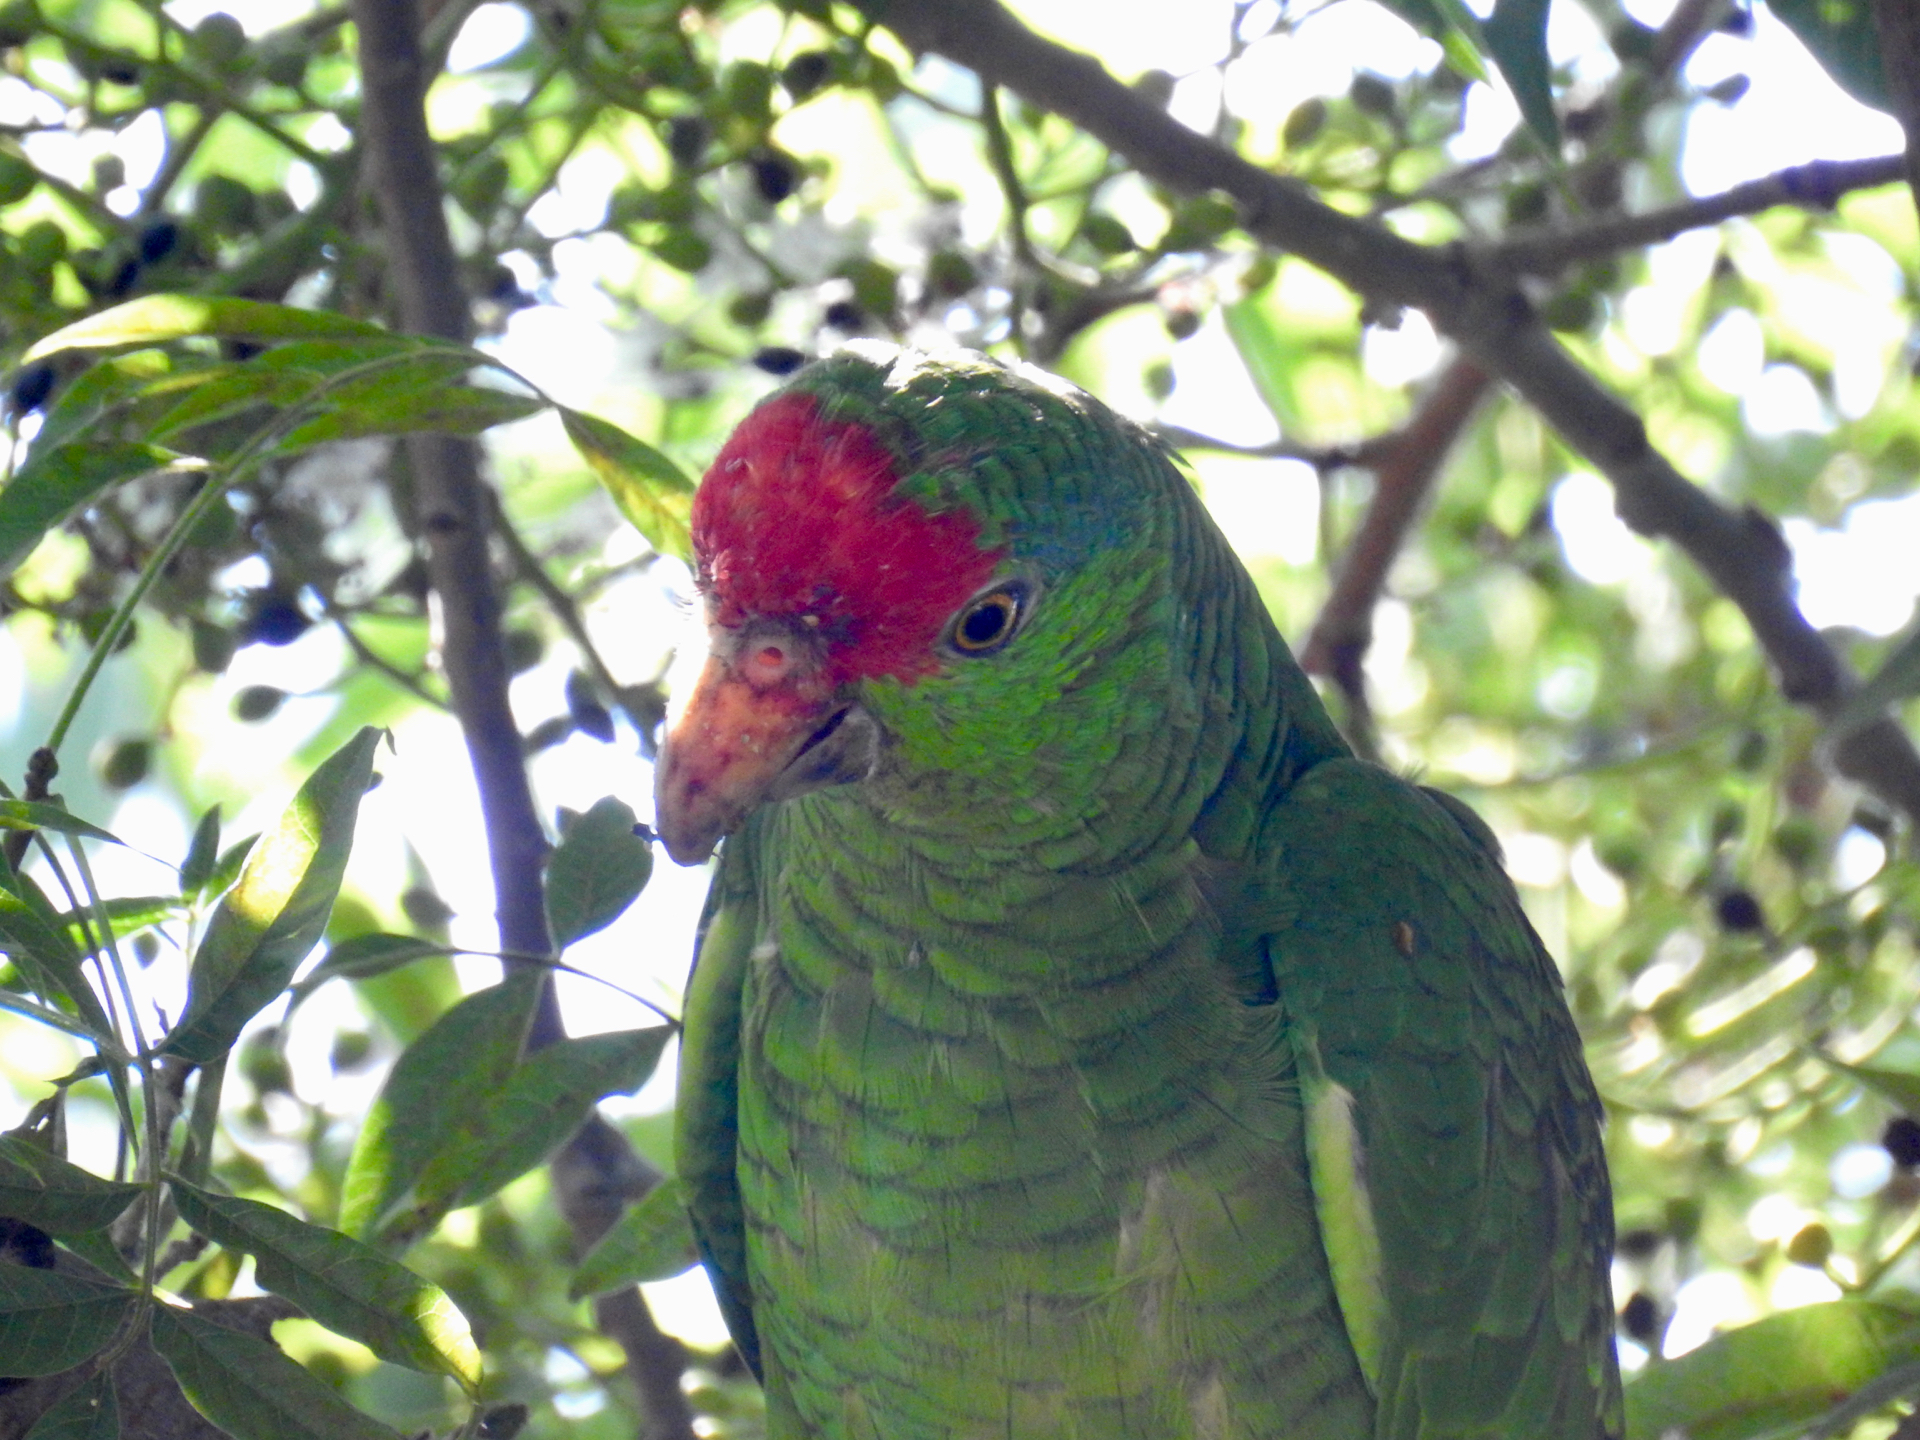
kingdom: Animalia
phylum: Chordata
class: Aves
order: Psittaciformes
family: Psittacidae
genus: Amazona
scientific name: Amazona viridigenalis
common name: Red-crowned amazon
